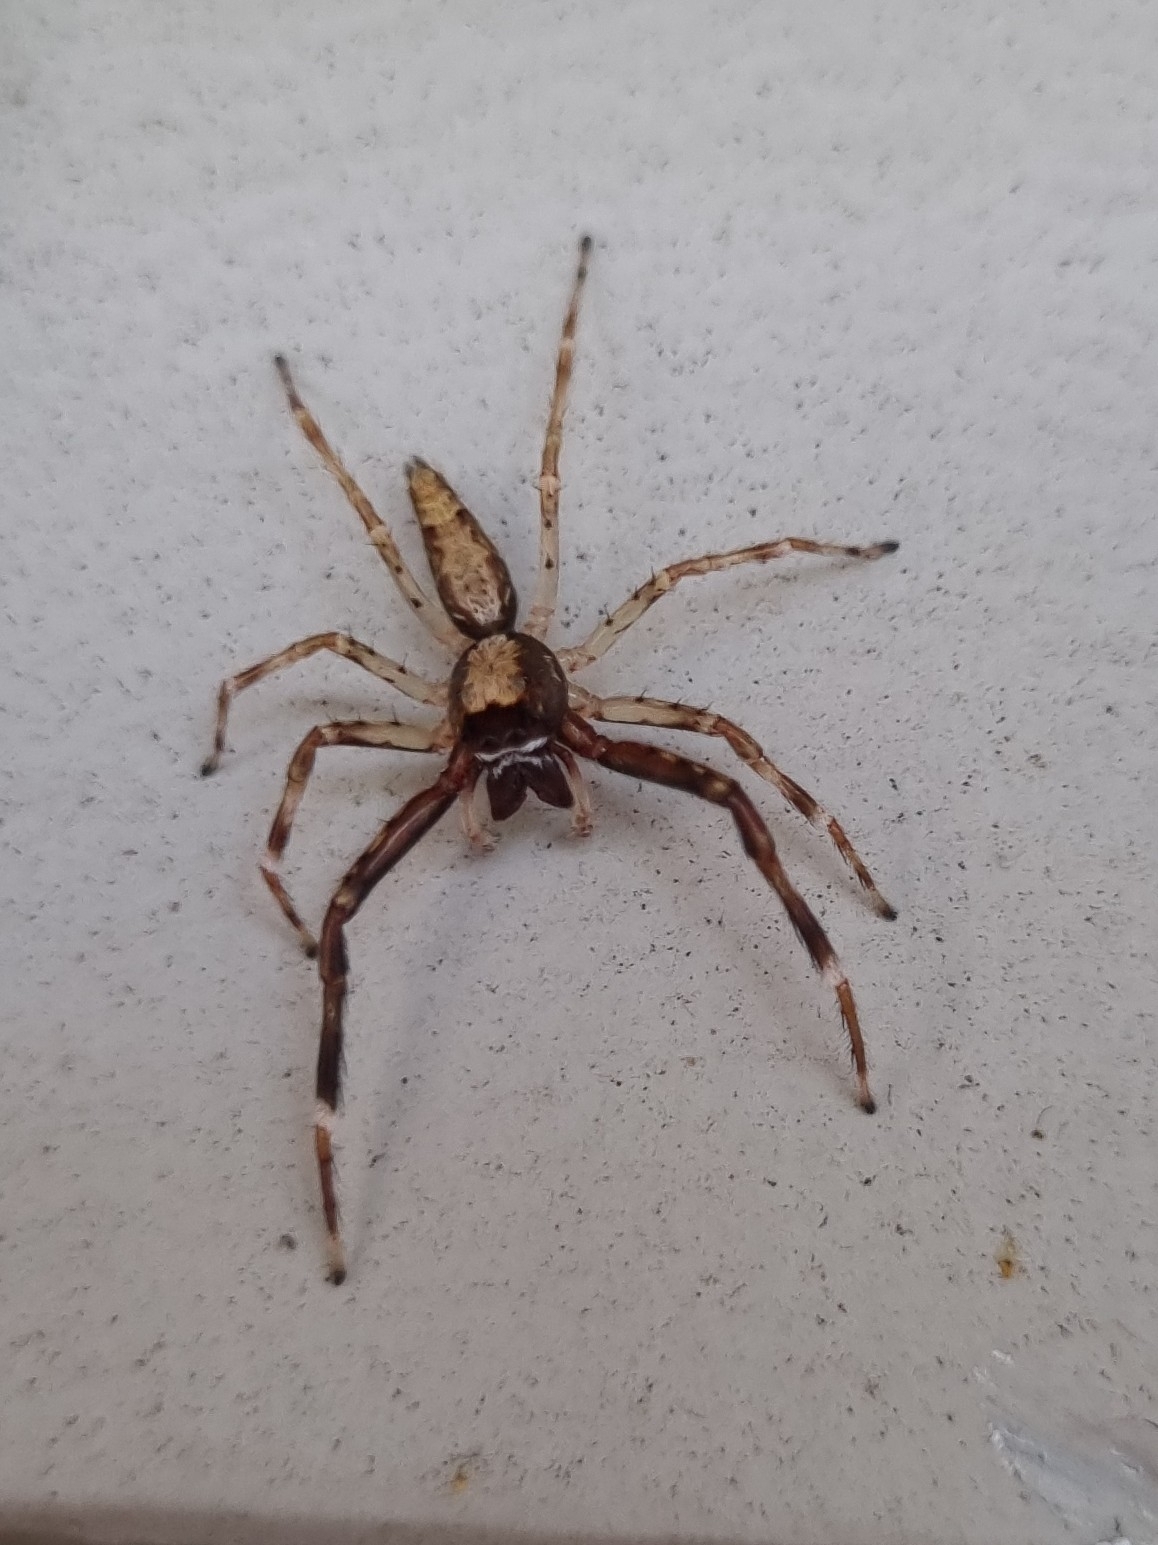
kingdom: Animalia
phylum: Arthropoda
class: Arachnida
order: Araneae
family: Salticidae
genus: Helpis
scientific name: Helpis minitabunda
